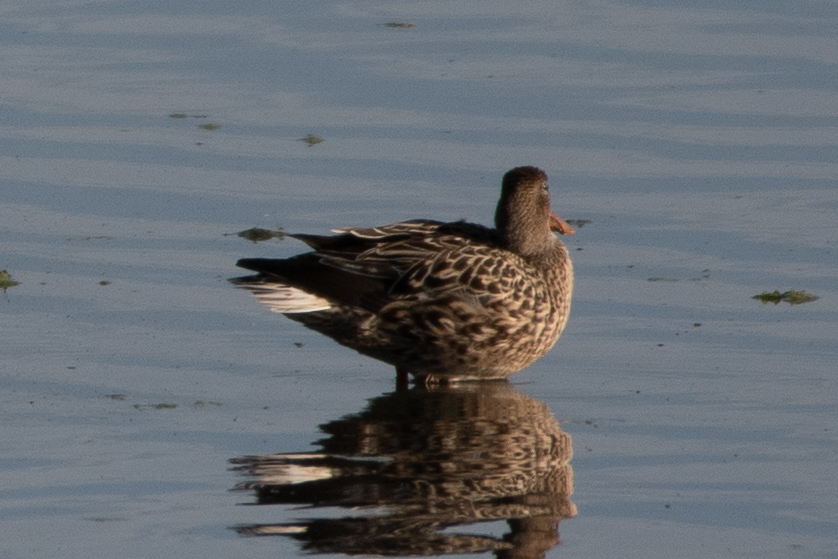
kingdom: Animalia
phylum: Chordata
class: Aves
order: Anseriformes
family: Anatidae
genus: Anas
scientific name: Anas platyrhynchos
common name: Mallard
